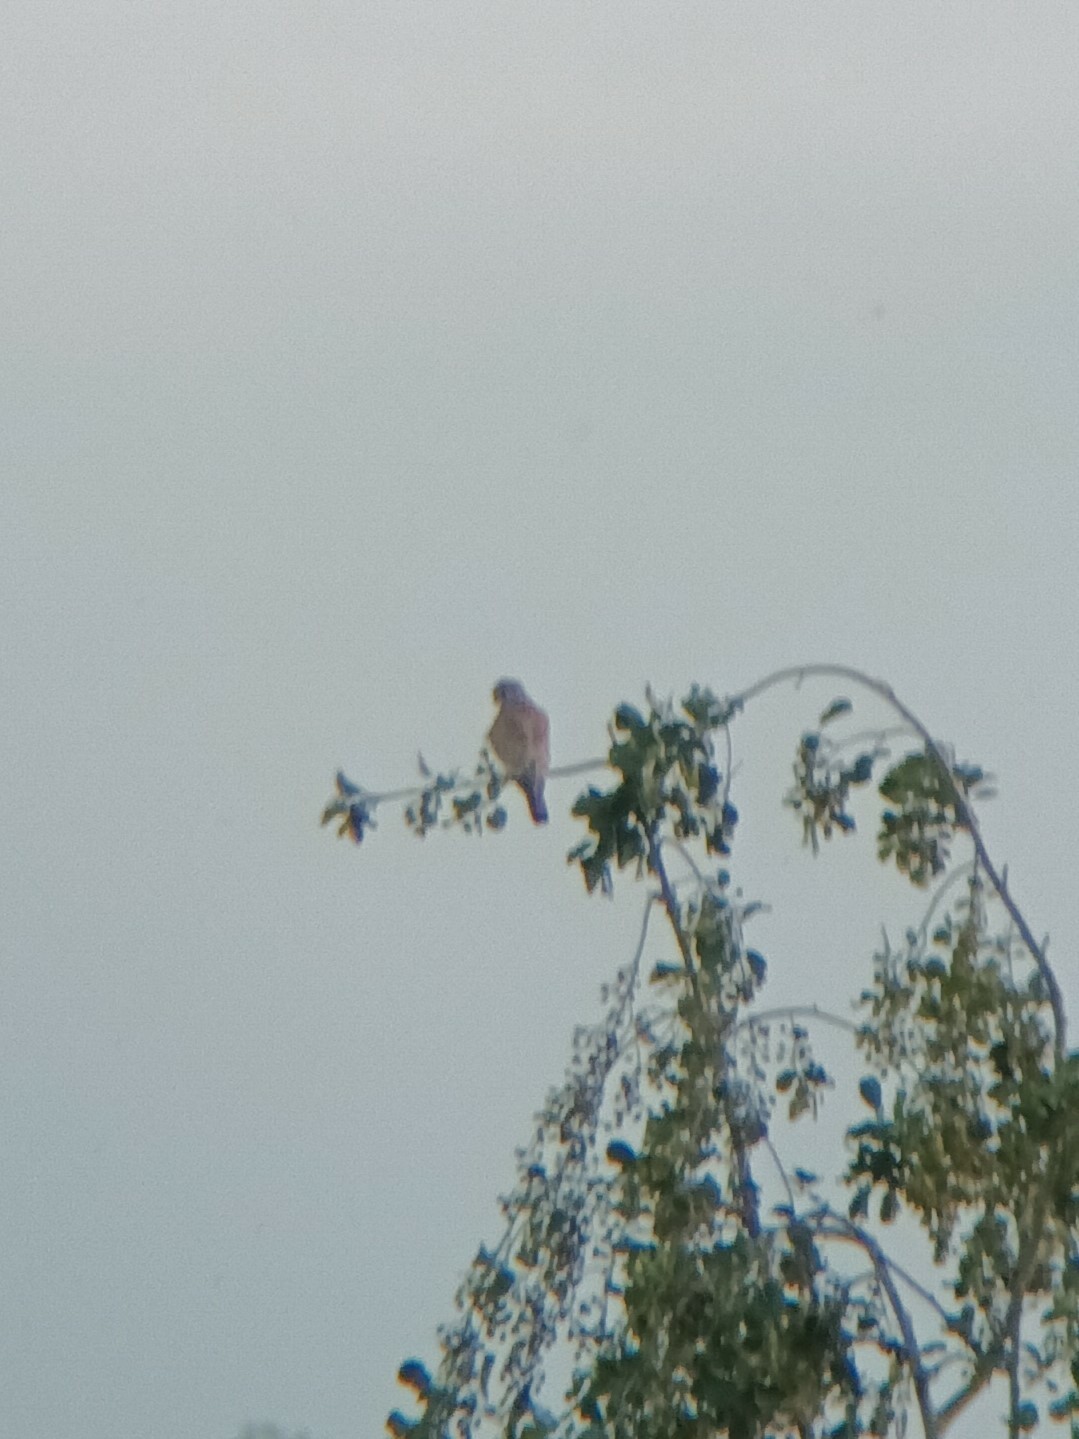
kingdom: Animalia
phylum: Chordata
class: Aves
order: Falconiformes
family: Falconidae
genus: Falco
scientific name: Falco tinnunculus
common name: Common kestrel
